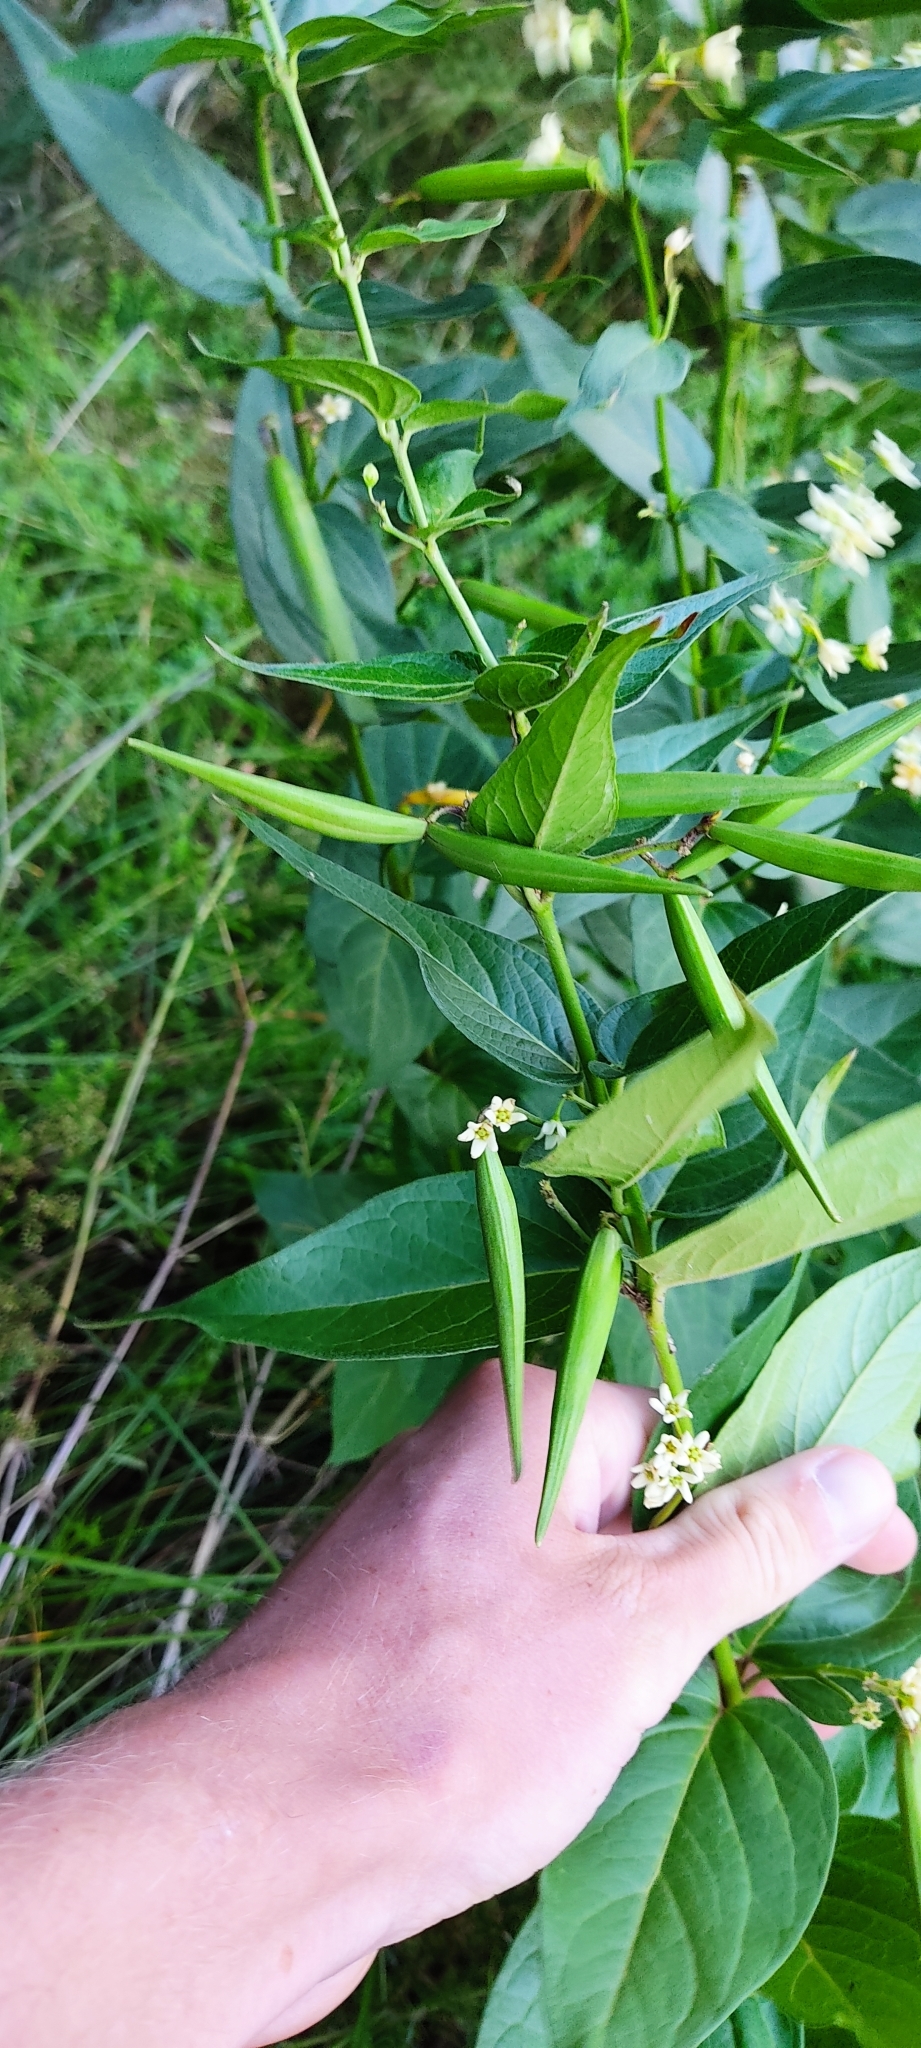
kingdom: Plantae
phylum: Tracheophyta
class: Magnoliopsida
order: Gentianales
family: Apocynaceae
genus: Vincetoxicum
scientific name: Vincetoxicum hirundinaria
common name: White swallowwort
